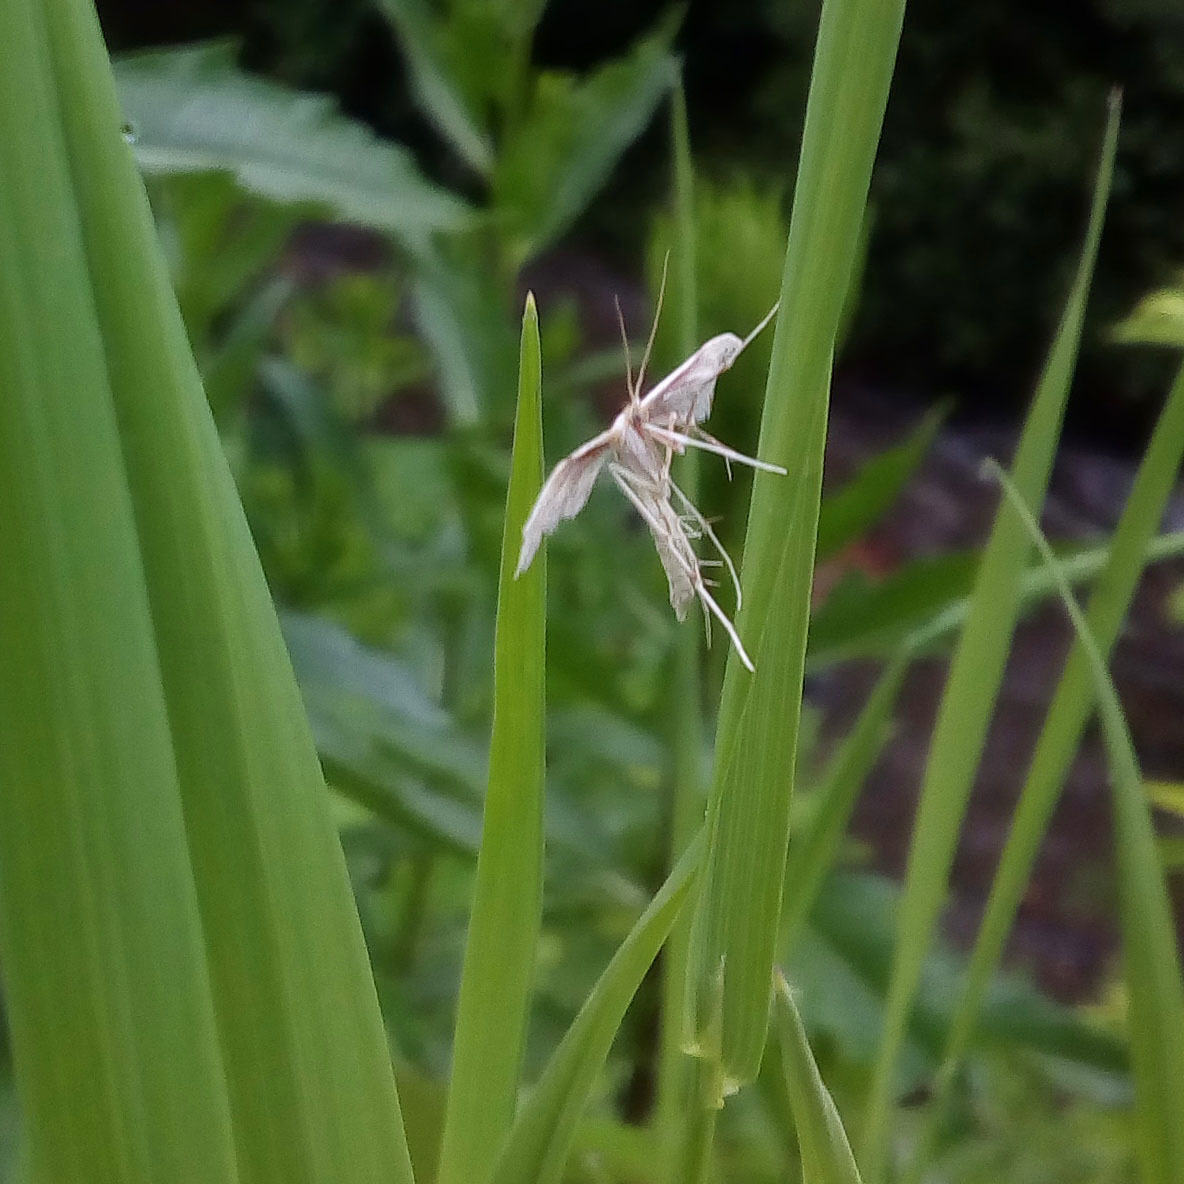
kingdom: Animalia
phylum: Arthropoda
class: Insecta
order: Lepidoptera
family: Pterophoridae
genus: Porrittia
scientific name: Porrittia galactodactyla
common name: Spotted white plume
